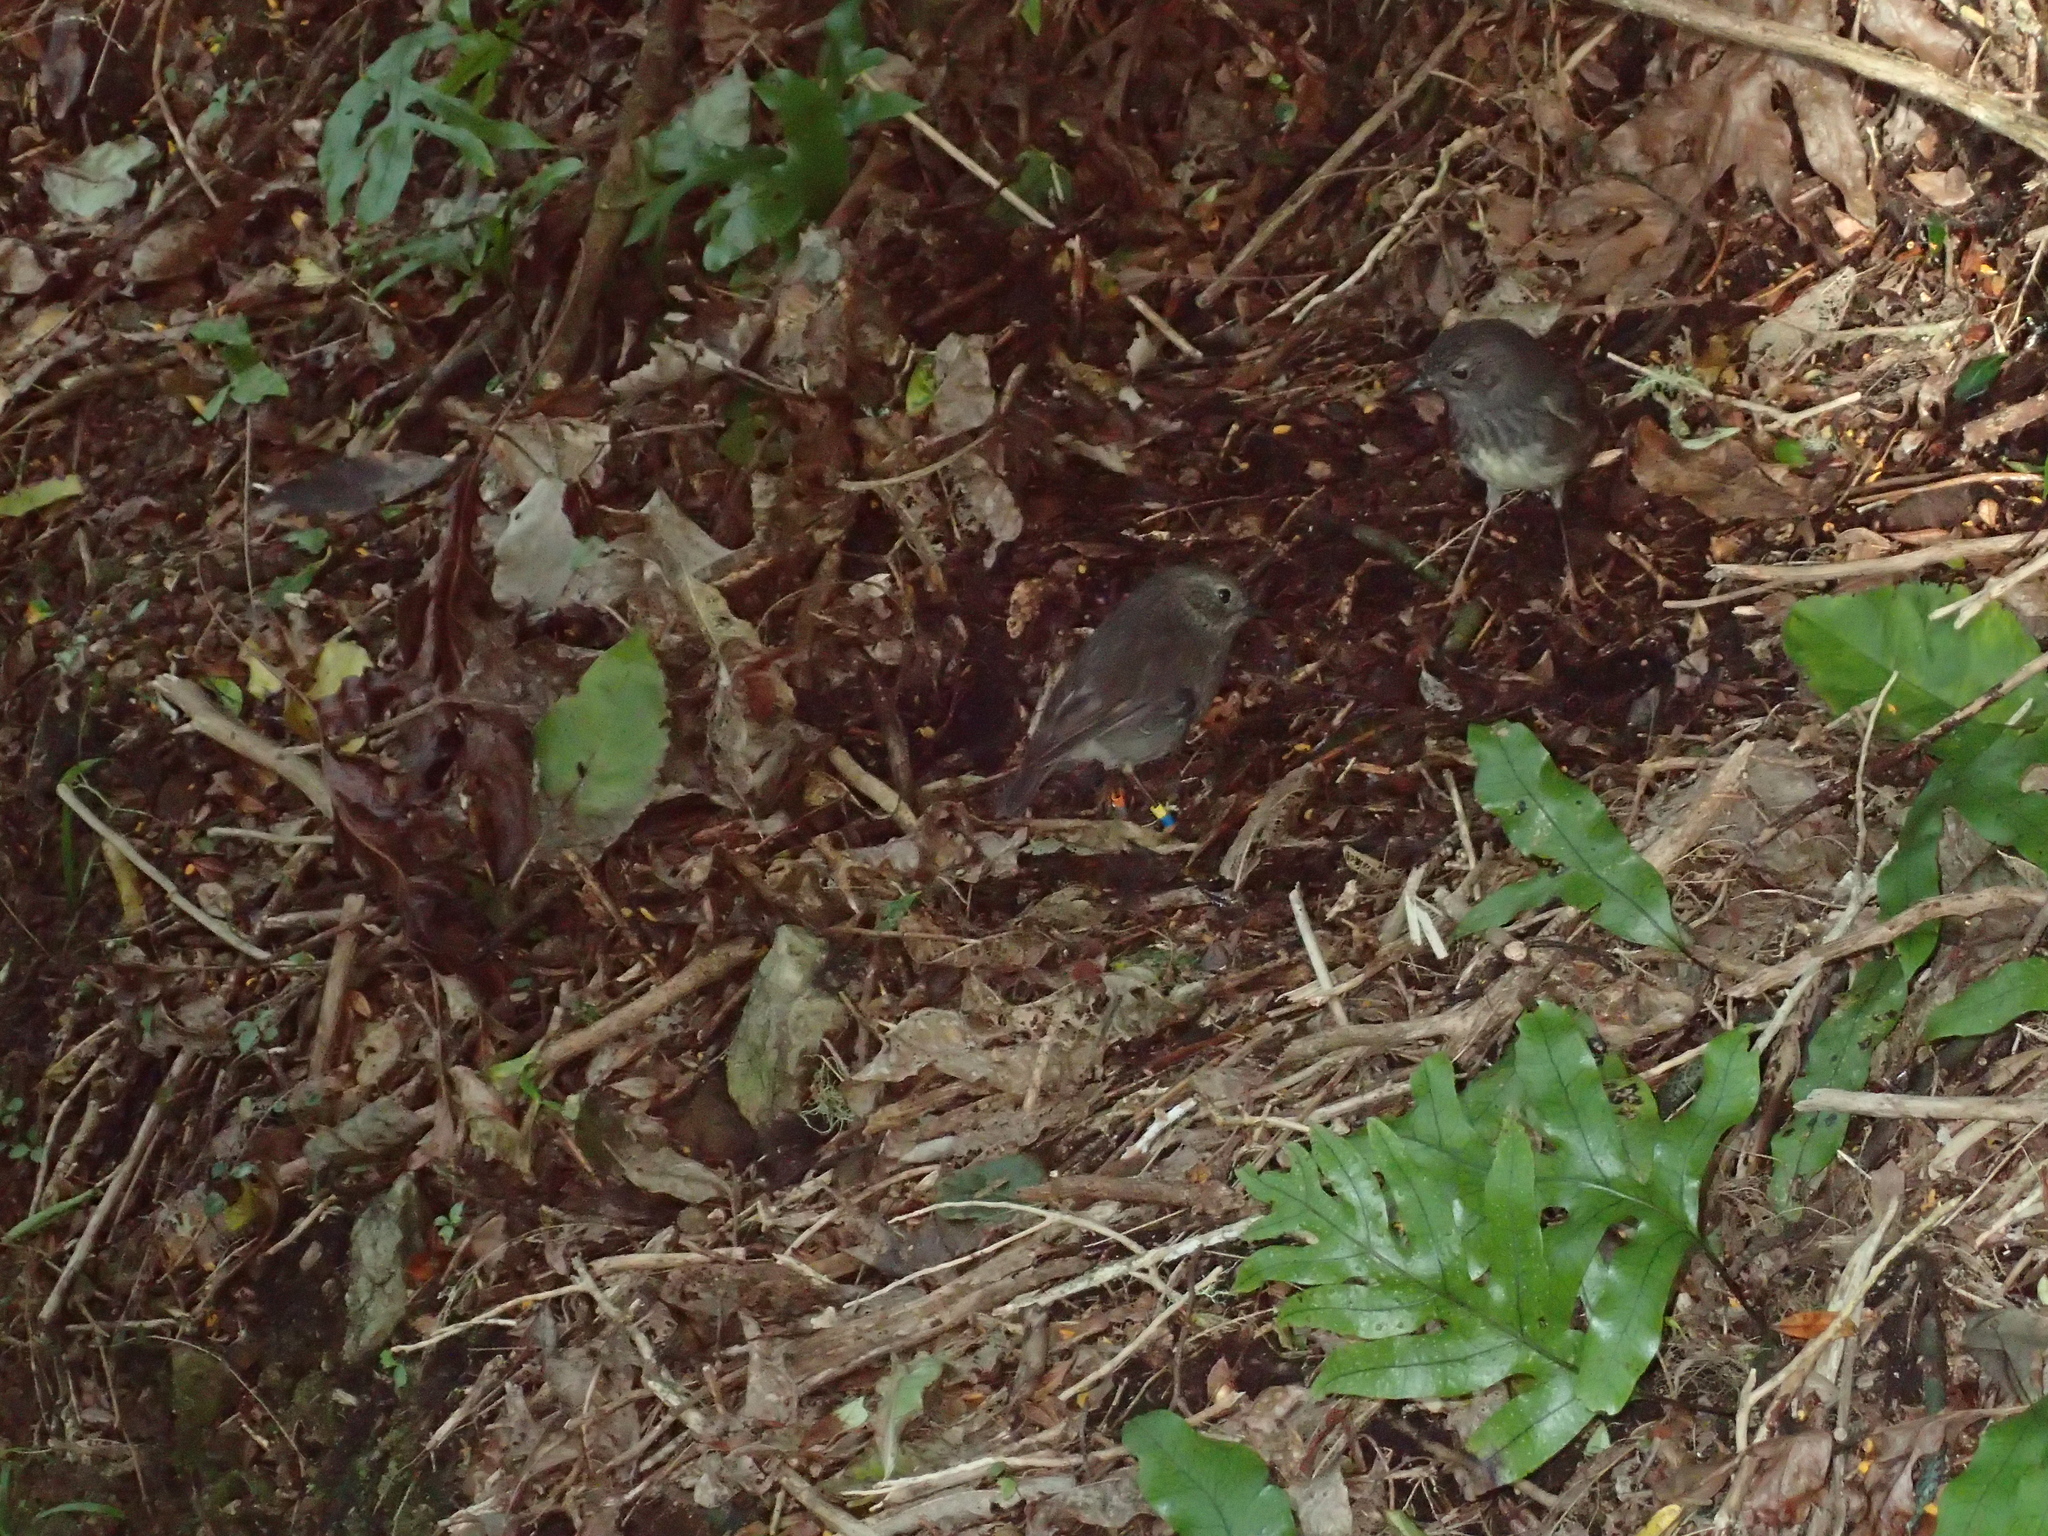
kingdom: Animalia
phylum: Chordata
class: Aves
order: Passeriformes
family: Petroicidae
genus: Petroica
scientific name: Petroica australis
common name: New zealand robin
